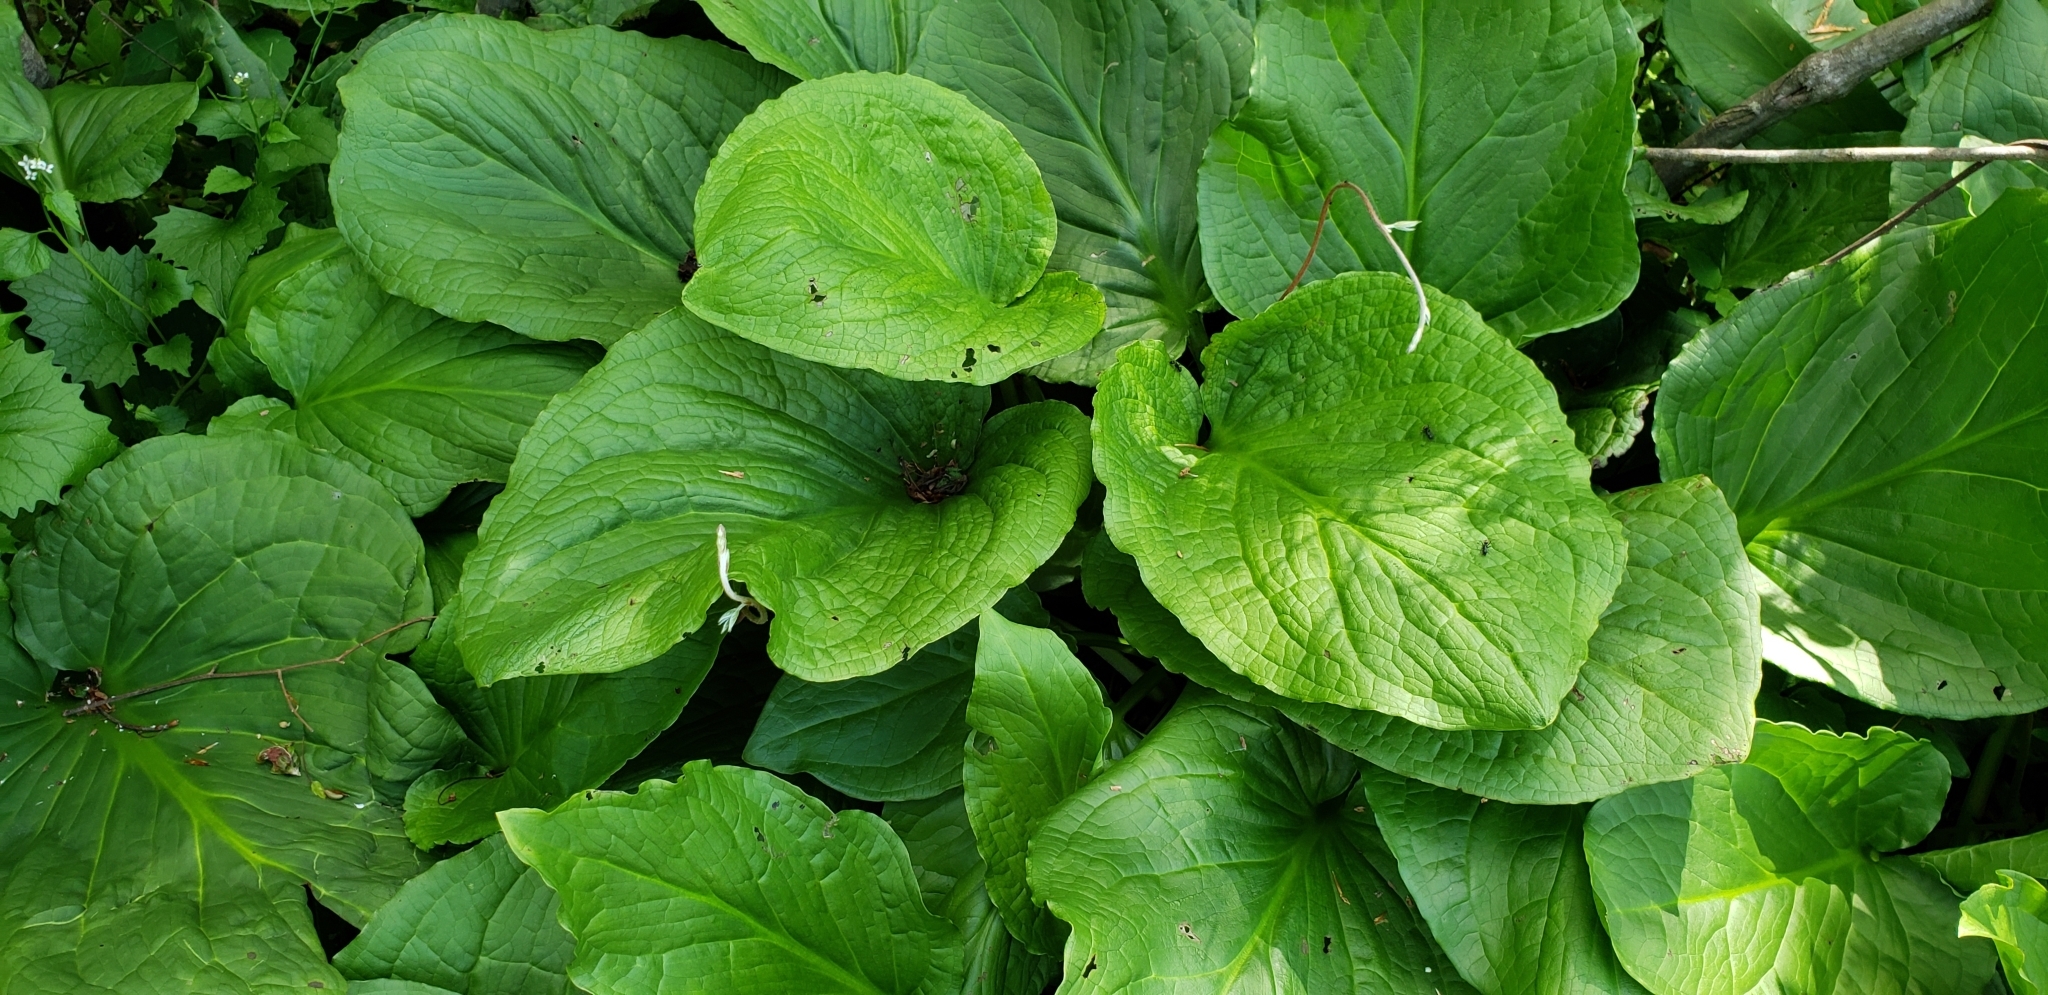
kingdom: Plantae
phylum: Tracheophyta
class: Liliopsida
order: Alismatales
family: Araceae
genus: Symplocarpus
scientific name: Symplocarpus foetidus
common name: Eastern skunk cabbage
